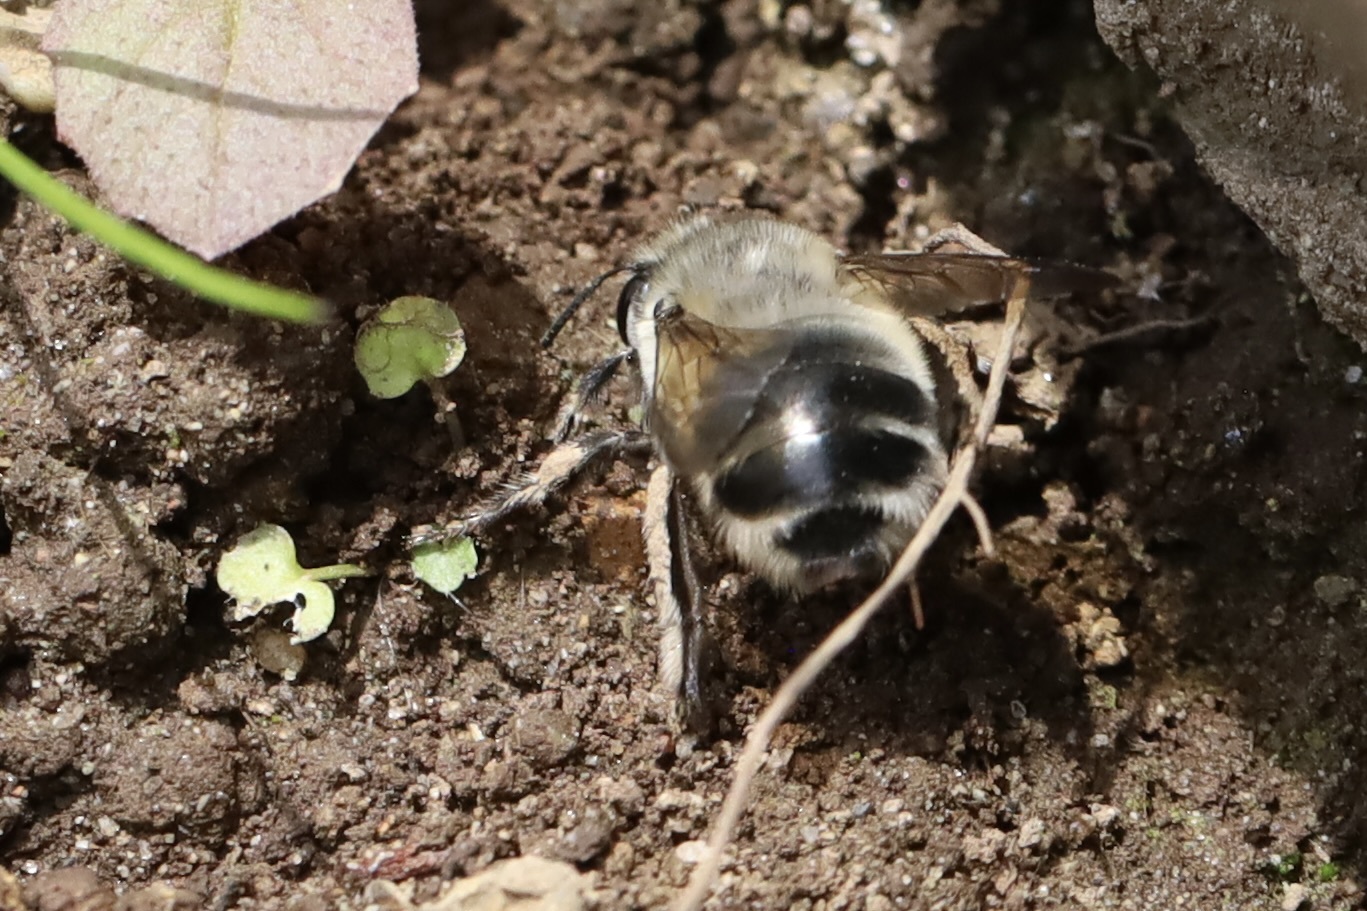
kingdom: Animalia
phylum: Arthropoda
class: Insecta
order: Hymenoptera
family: Apidae
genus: Anthophora
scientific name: Anthophora pacifica
